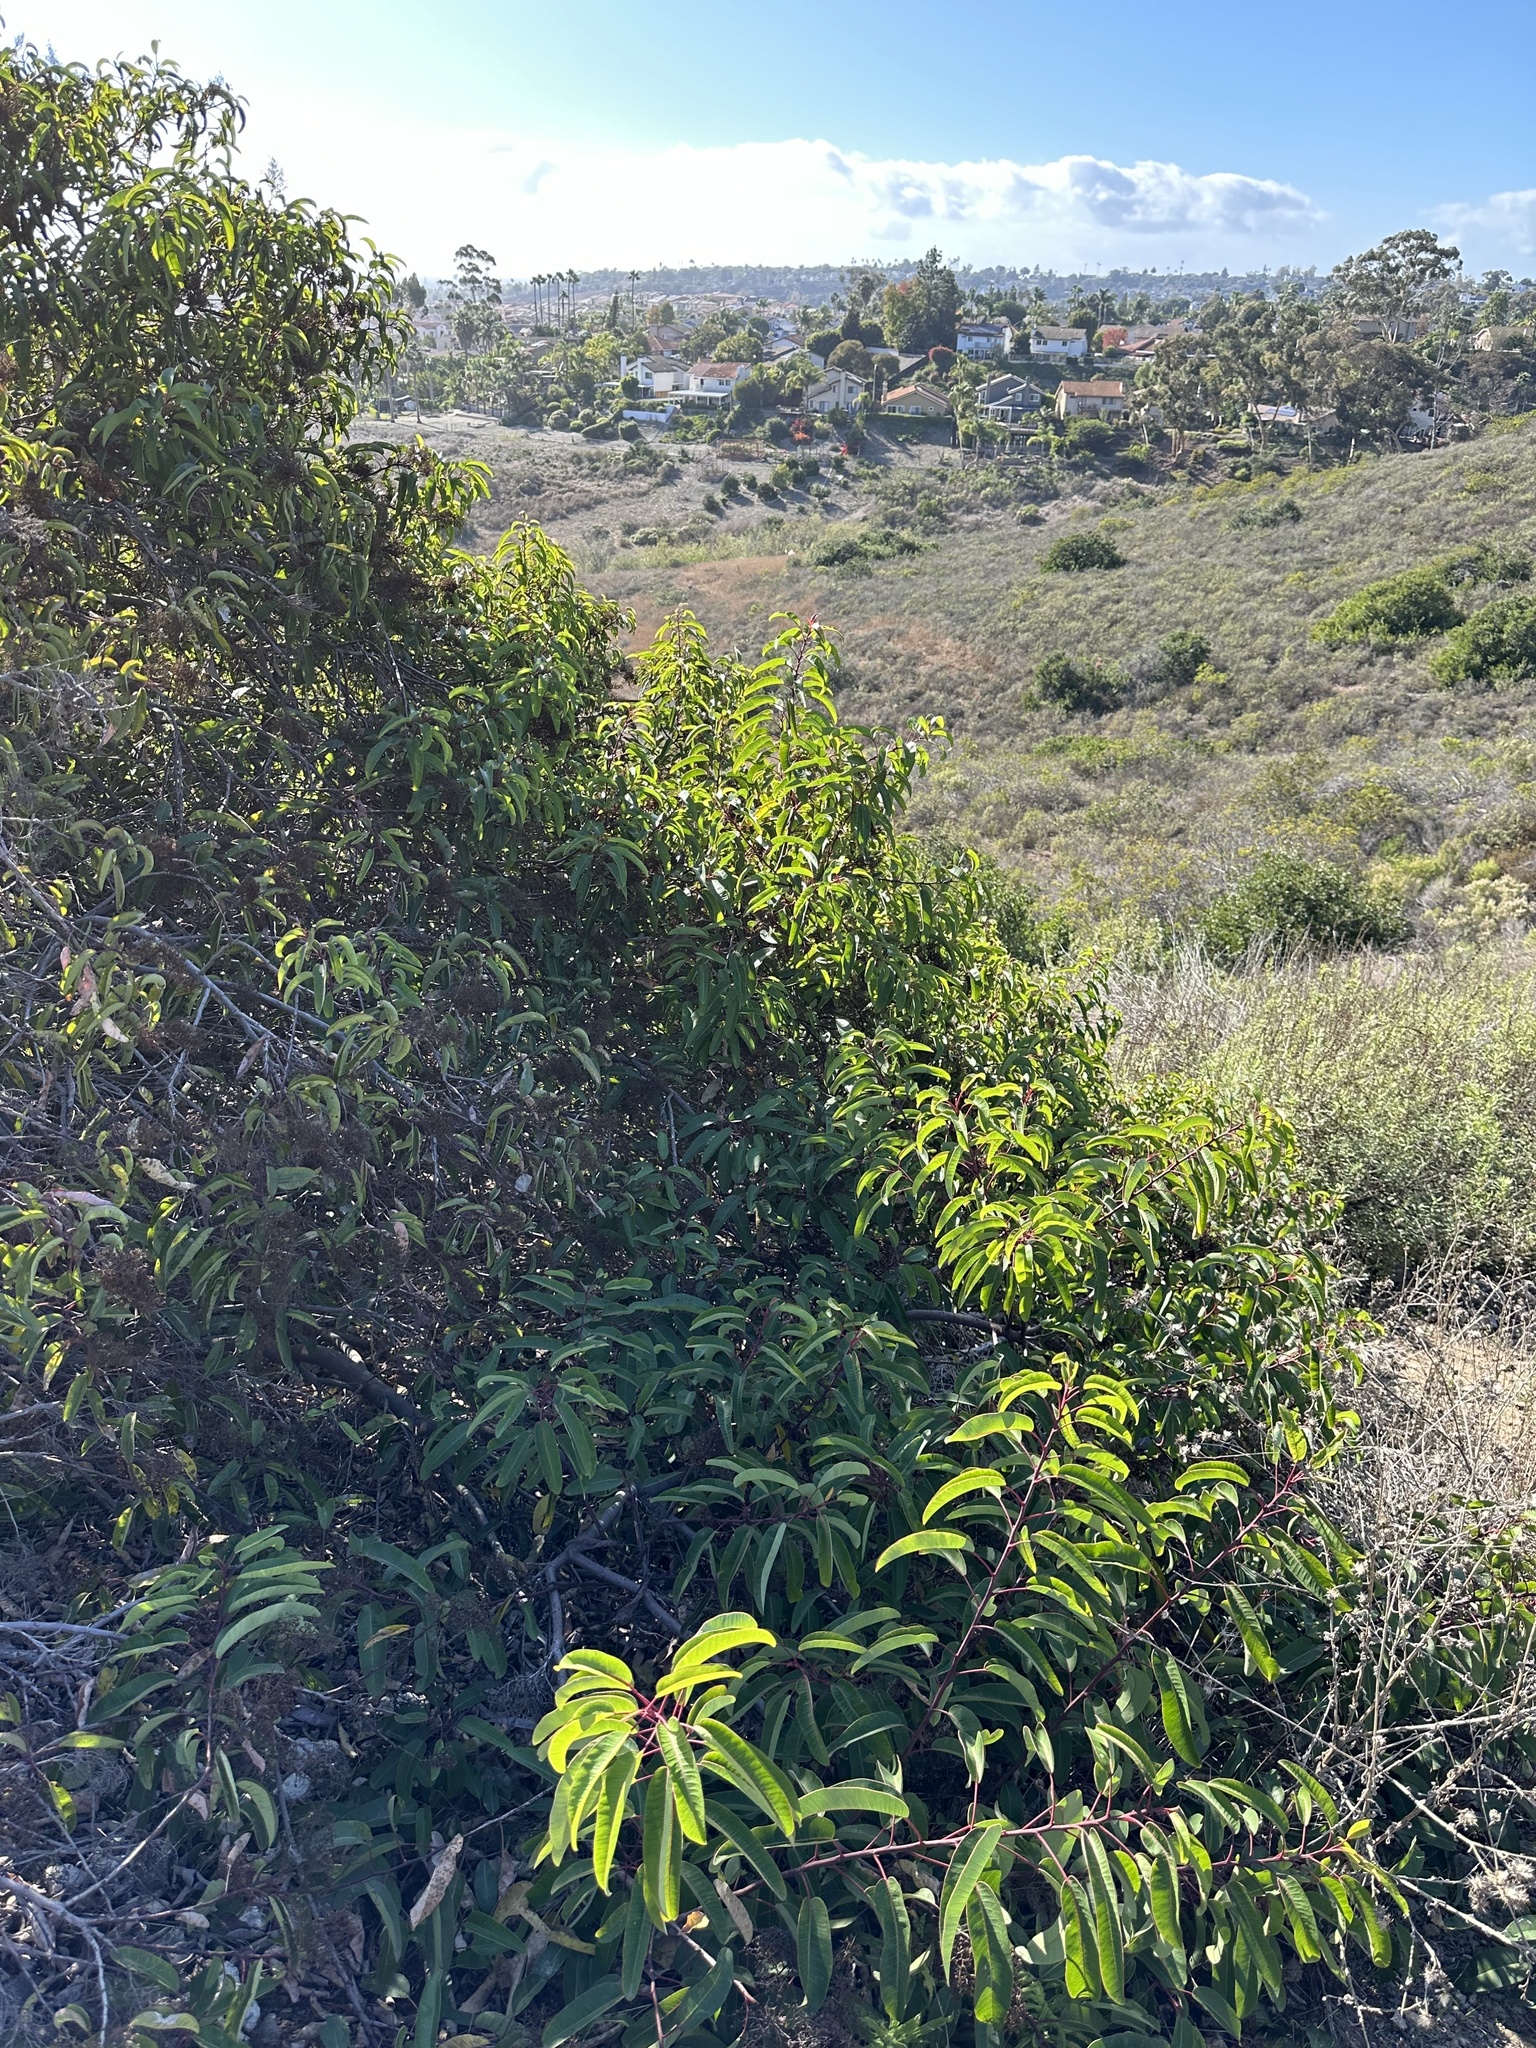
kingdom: Plantae
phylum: Tracheophyta
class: Magnoliopsida
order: Sapindales
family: Anacardiaceae
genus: Malosma
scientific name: Malosma laurina
